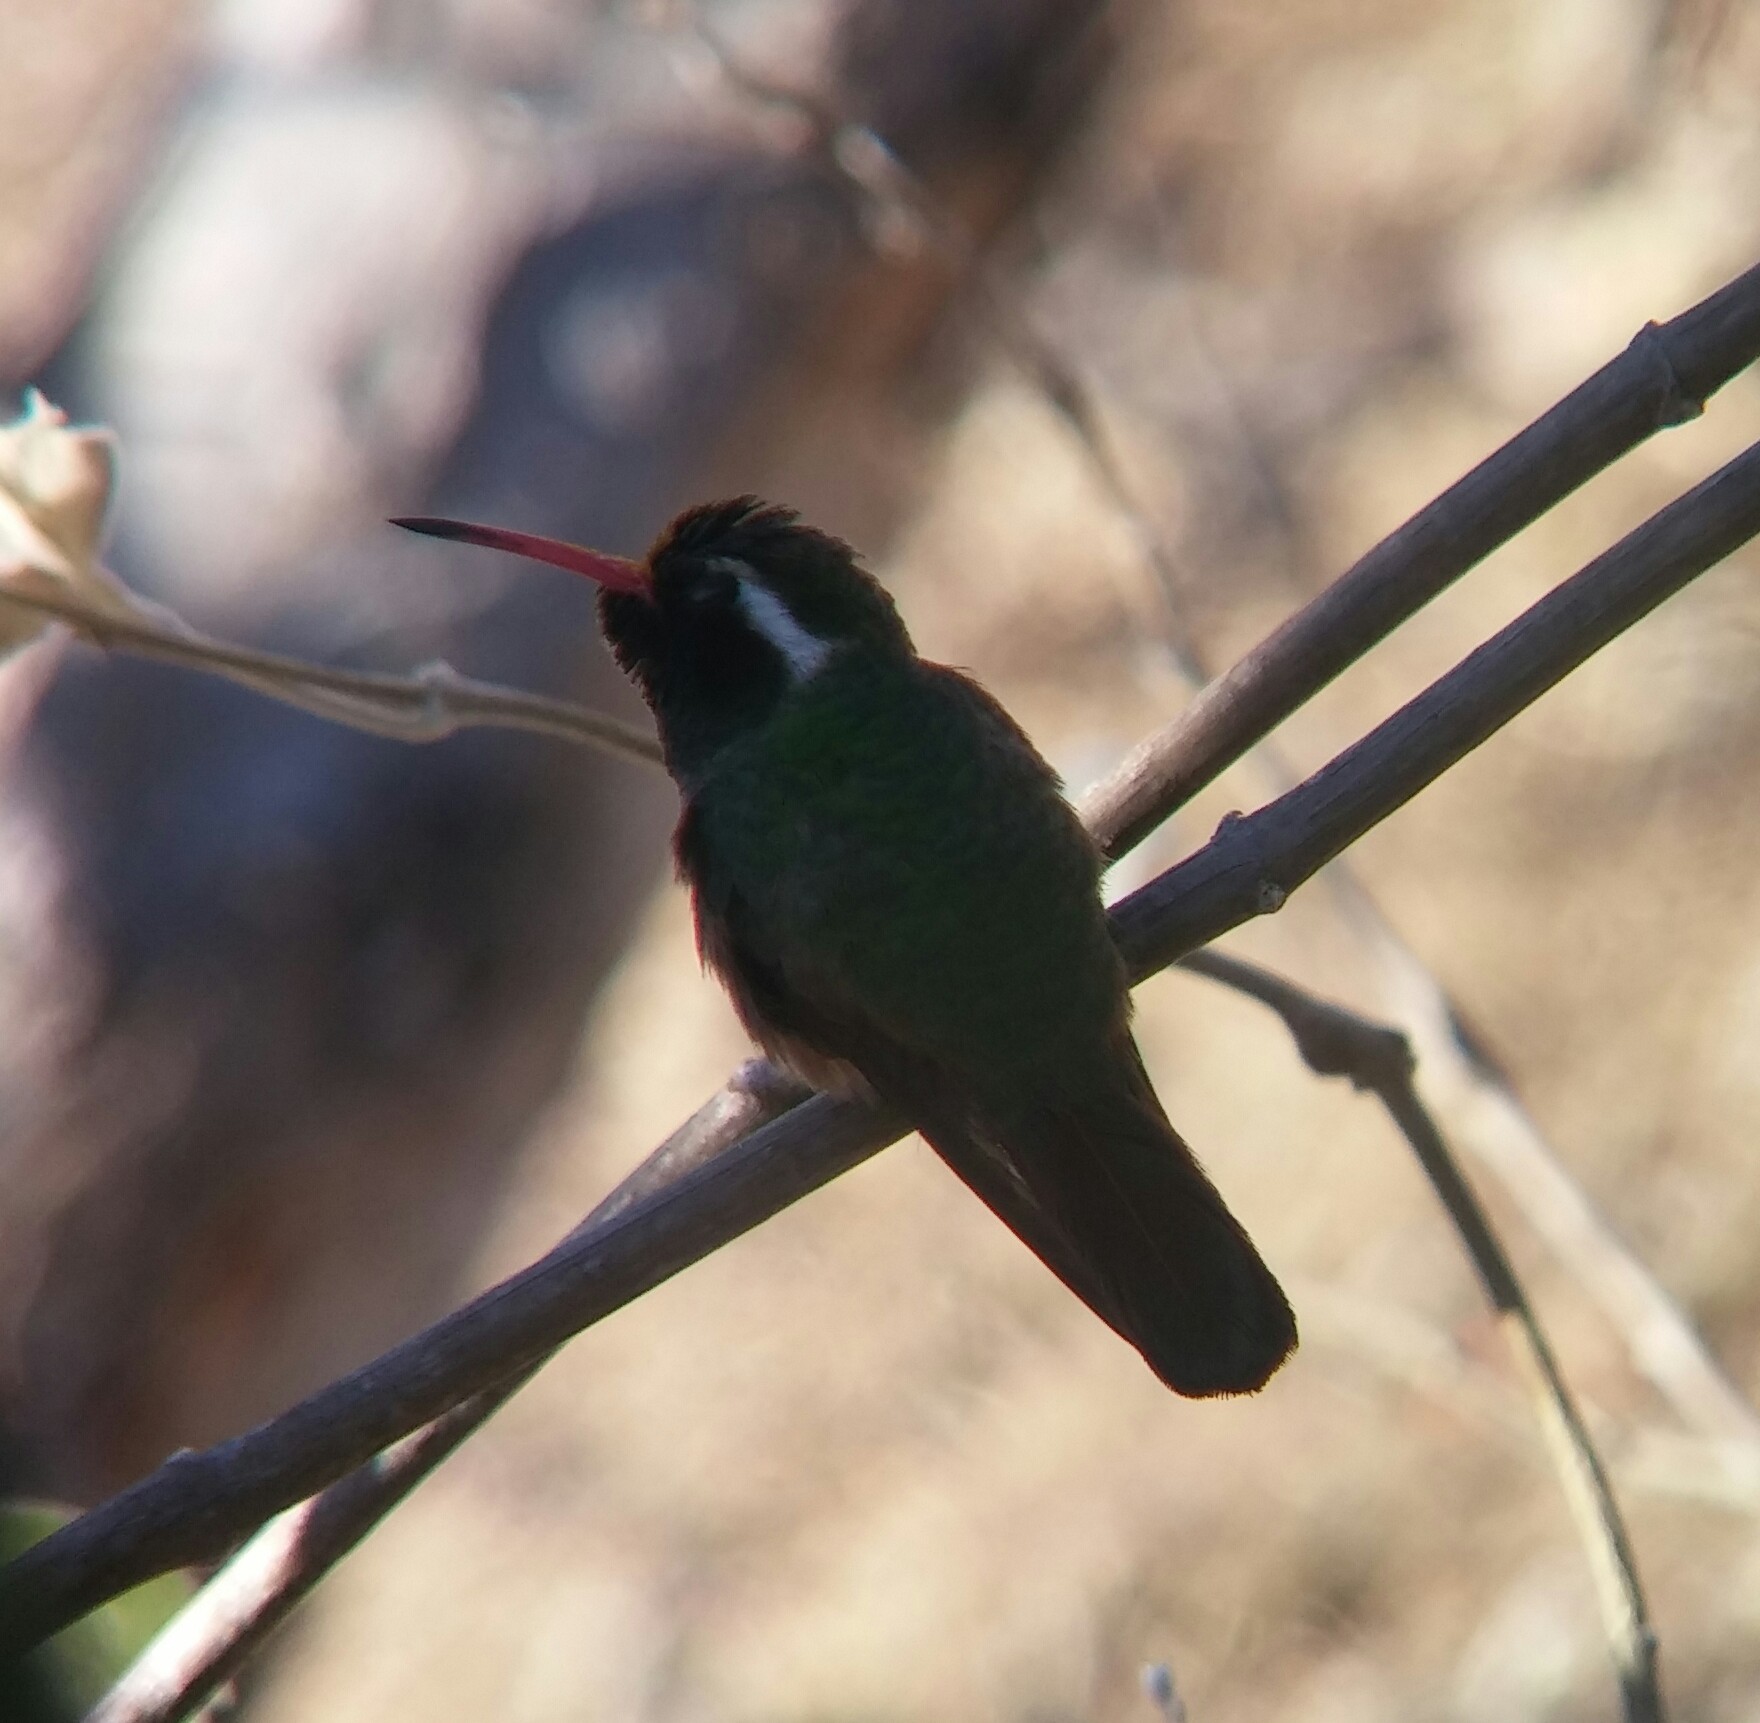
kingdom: Animalia
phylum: Chordata
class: Aves
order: Apodiformes
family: Trochilidae
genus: Basilinna
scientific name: Basilinna xantusii
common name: Xantus's hummingbird
